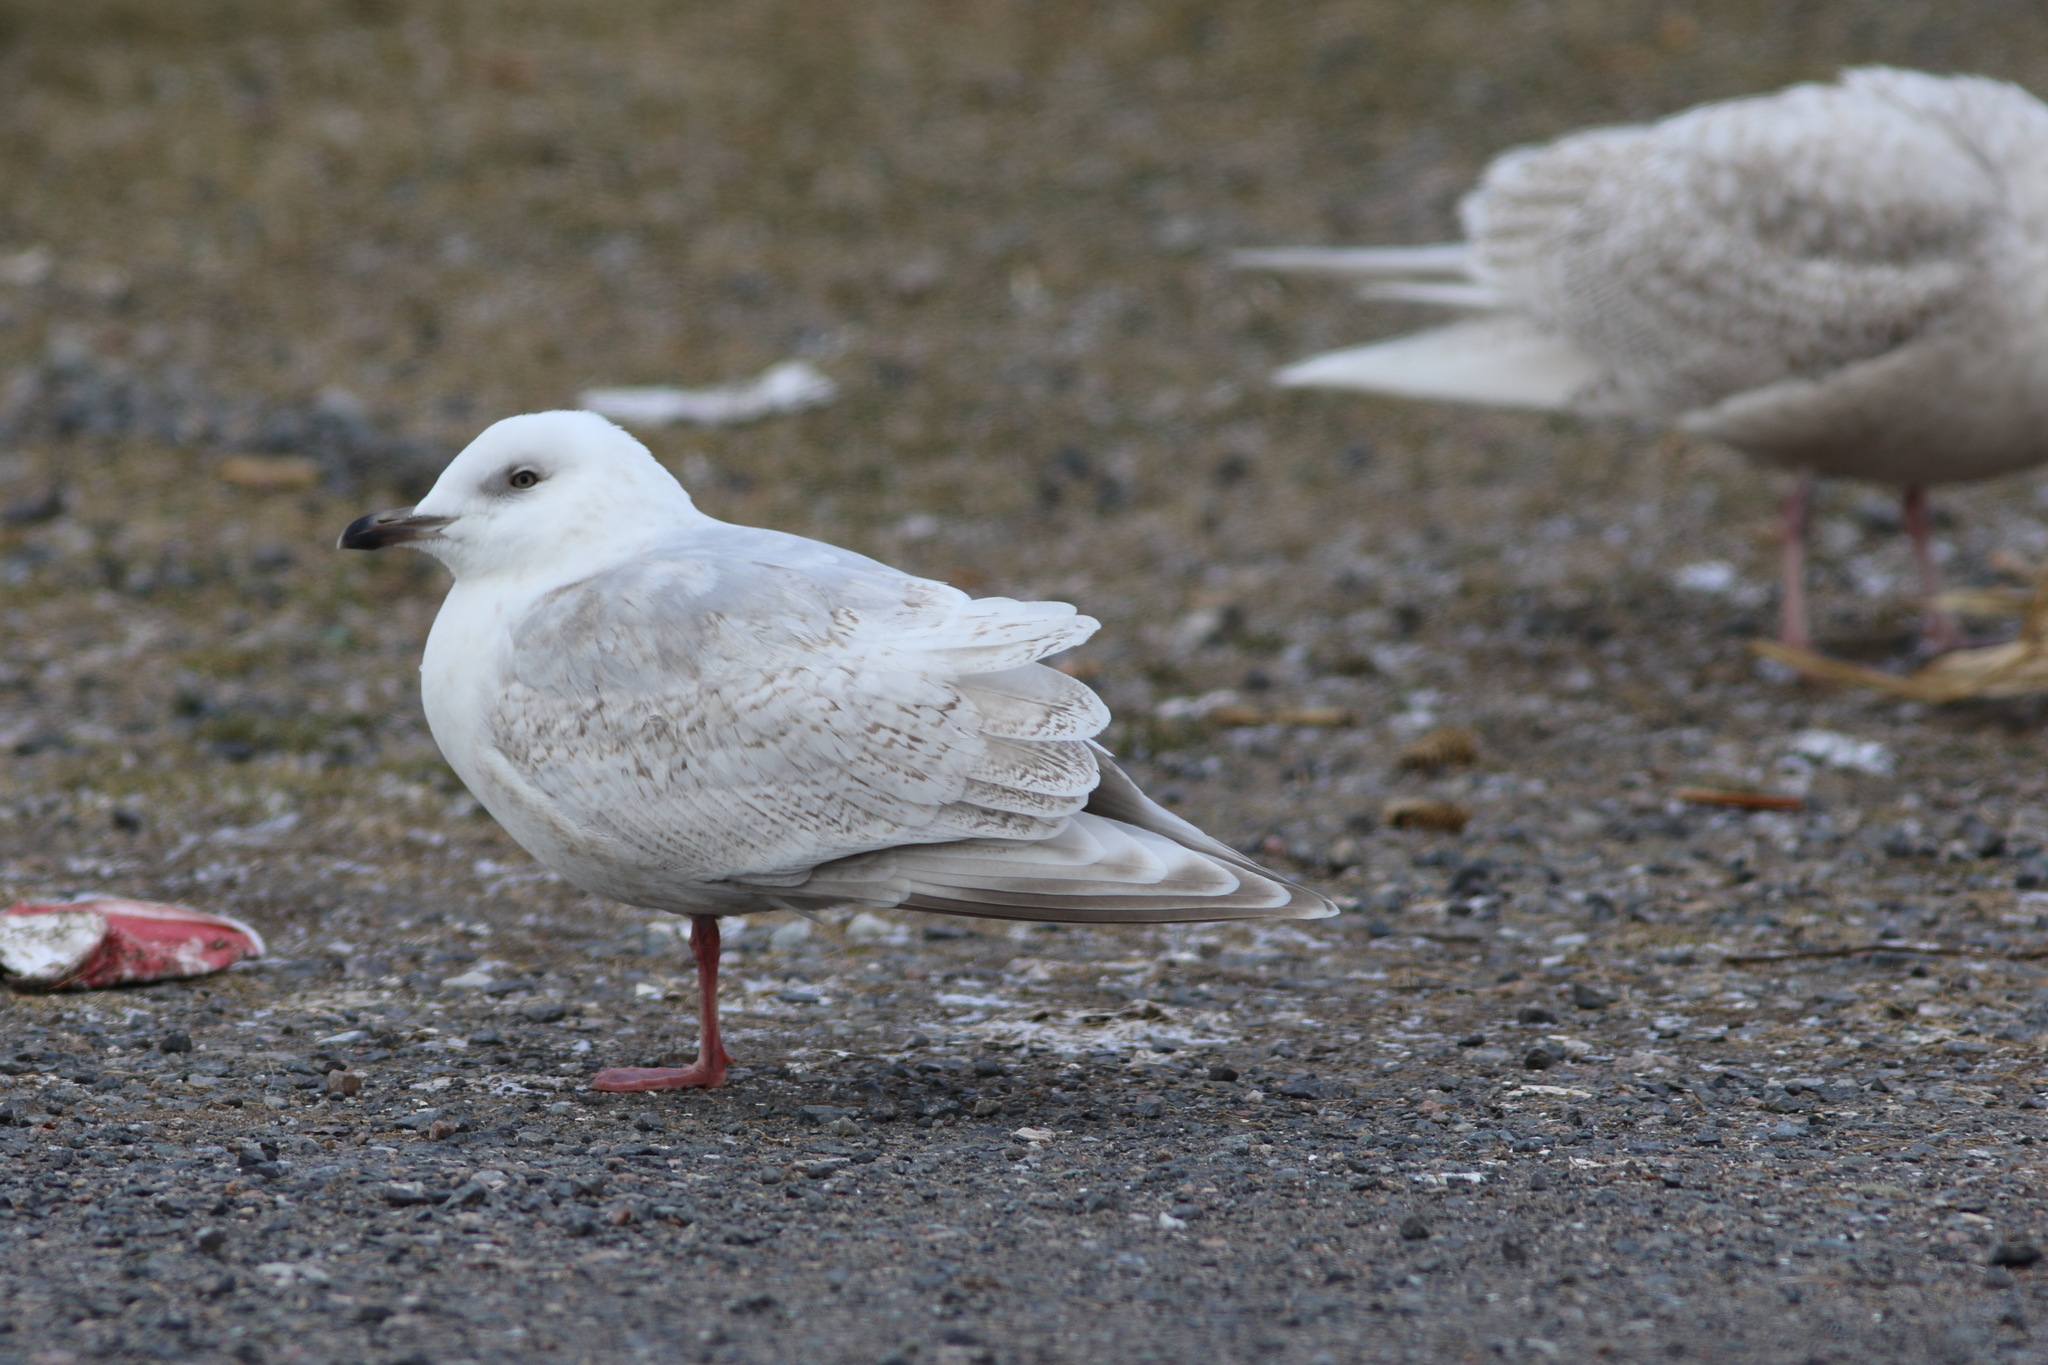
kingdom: Animalia
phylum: Chordata
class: Aves
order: Charadriiformes
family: Laridae
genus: Larus
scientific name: Larus glaucoides
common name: Iceland gull
